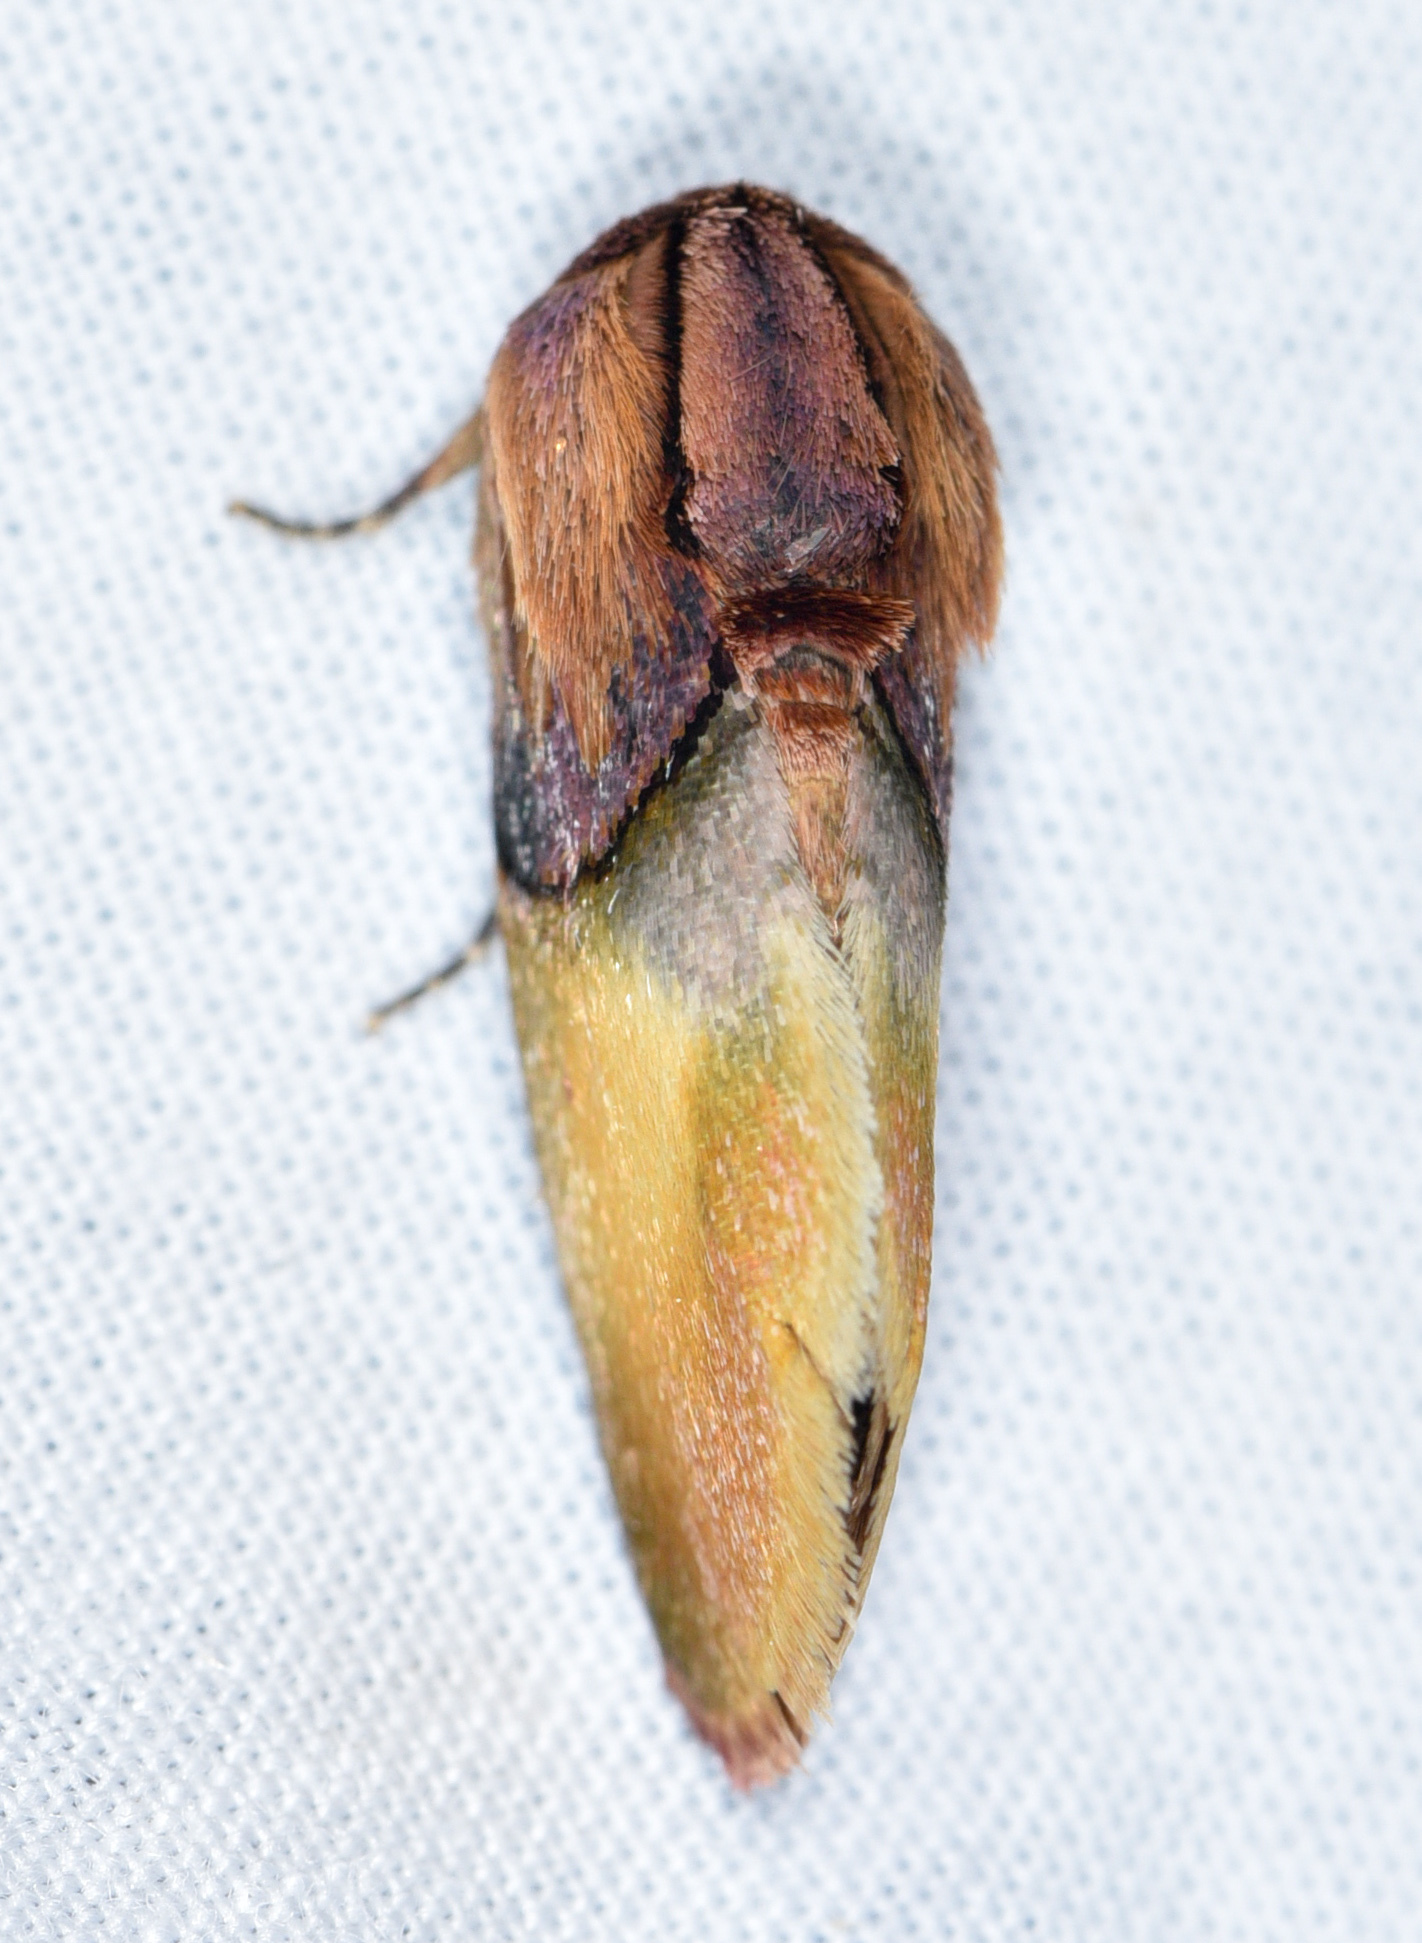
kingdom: Animalia
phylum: Arthropoda
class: Insecta
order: Lepidoptera
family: Noctuidae
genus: Chalcoecia
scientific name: Chalcoecia patricia
